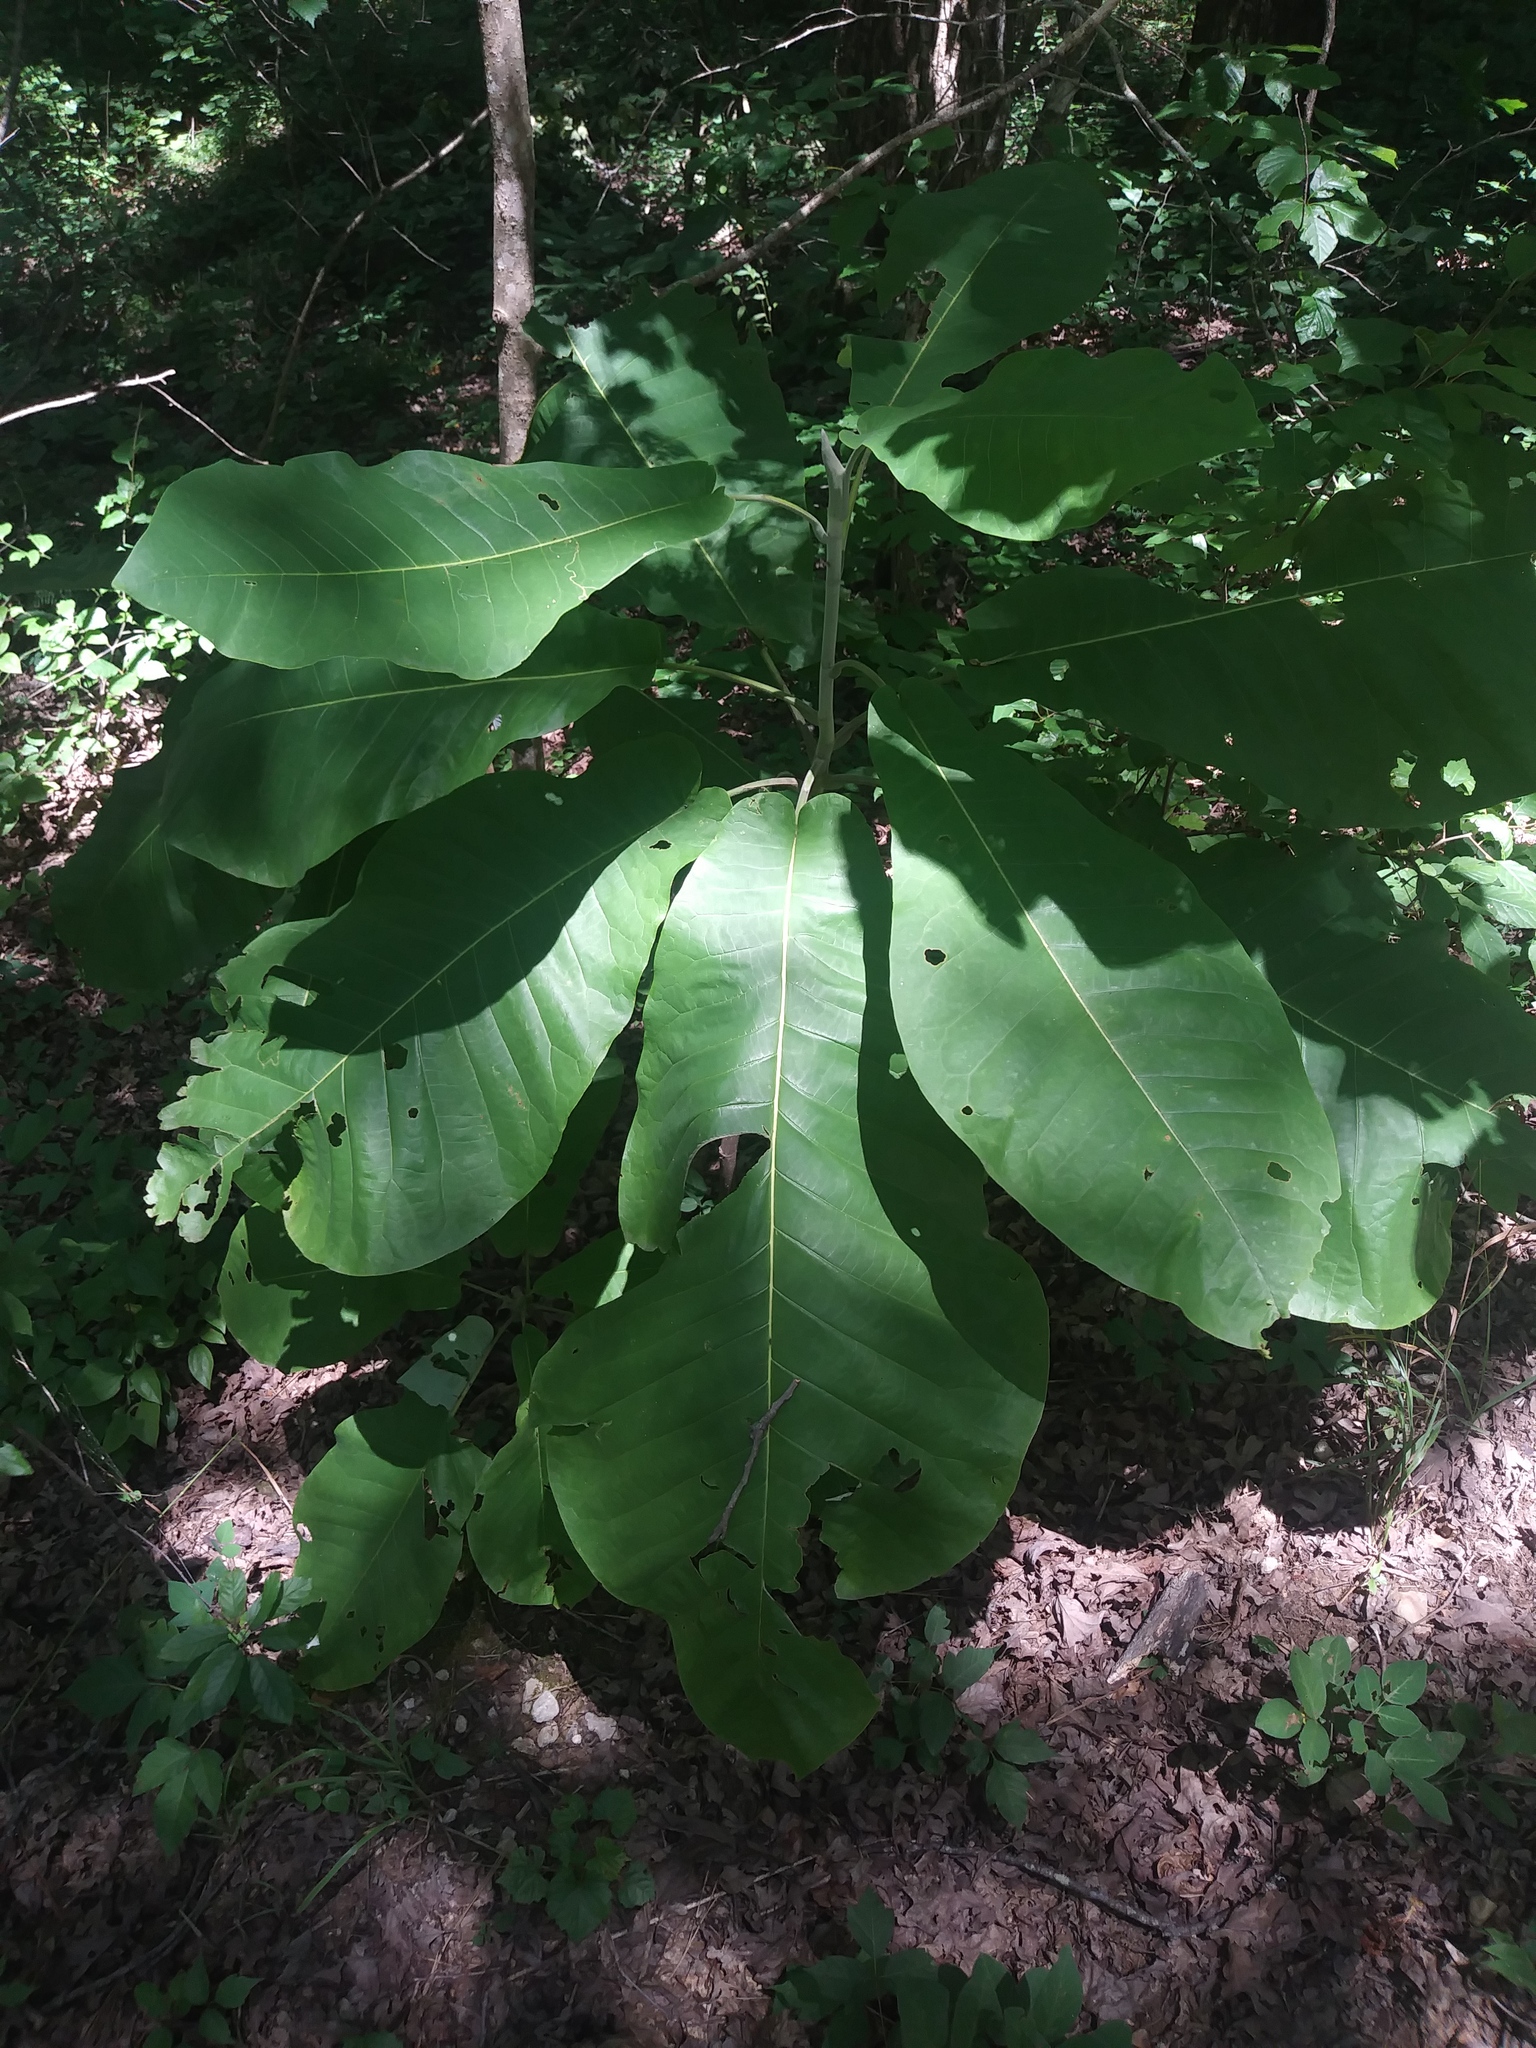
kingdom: Plantae
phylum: Tracheophyta
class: Magnoliopsida
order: Magnoliales
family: Magnoliaceae
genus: Magnolia
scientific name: Magnolia macrophylla
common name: Big-leaf magnolia
